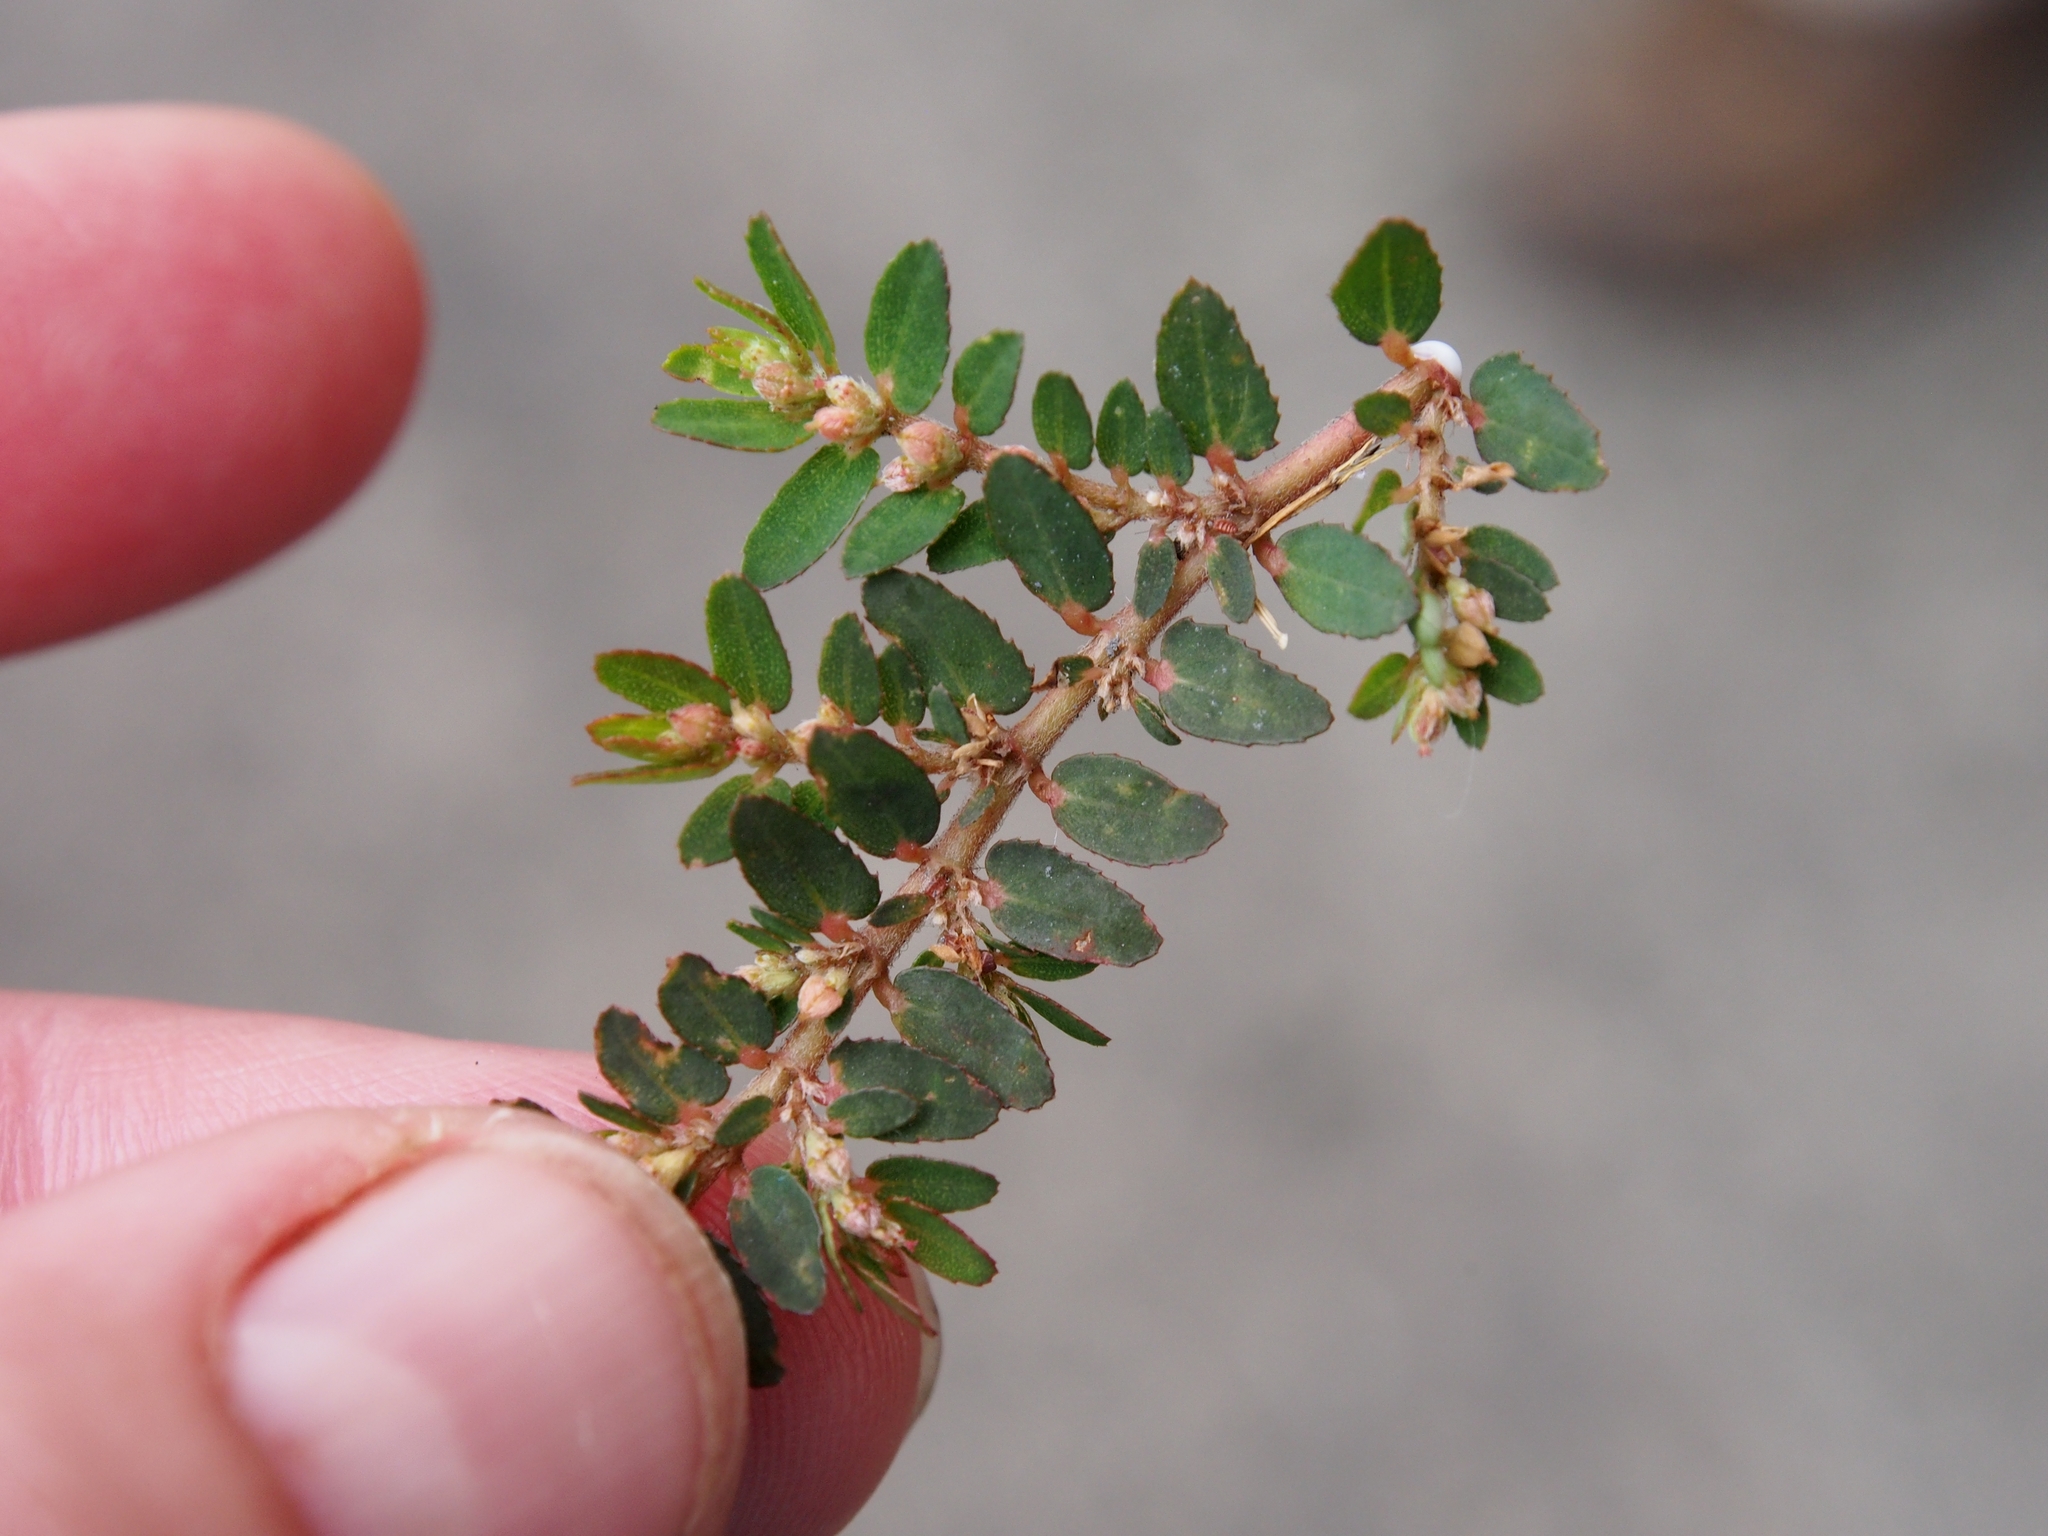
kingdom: Plantae
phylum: Tracheophyta
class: Magnoliopsida
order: Malpighiales
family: Euphorbiaceae
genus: Euphorbia
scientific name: Euphorbia thymifolia
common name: Gulf sandmat
